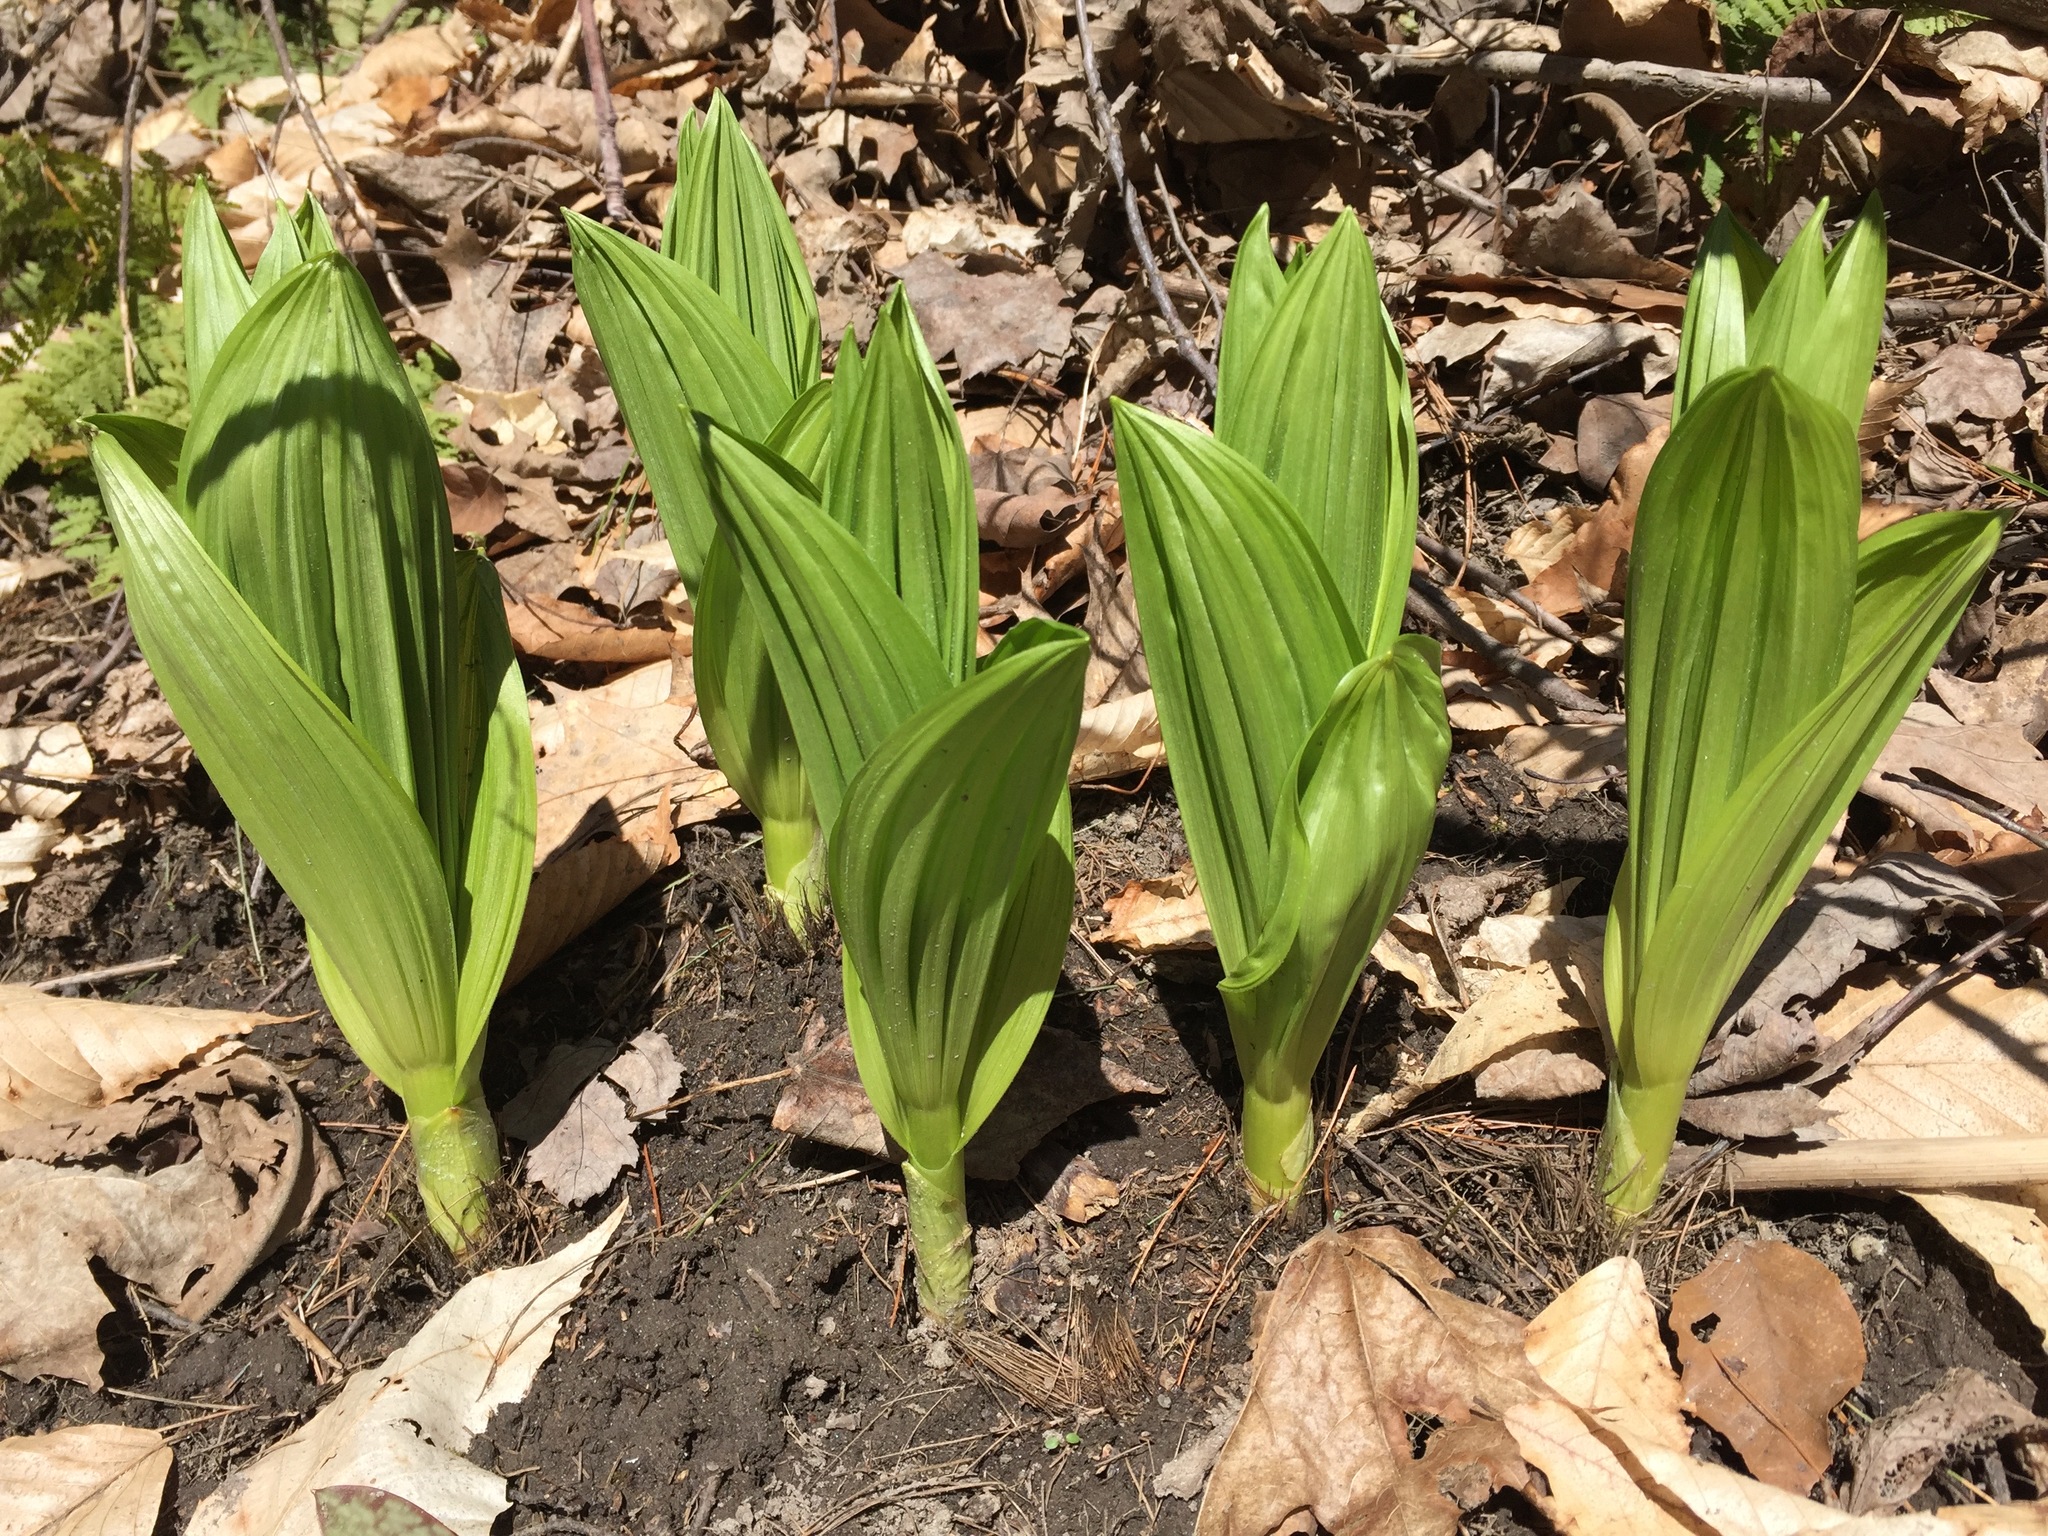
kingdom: Plantae
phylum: Tracheophyta
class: Liliopsida
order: Liliales
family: Melanthiaceae
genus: Veratrum
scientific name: Veratrum viride
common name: American false hellebore
